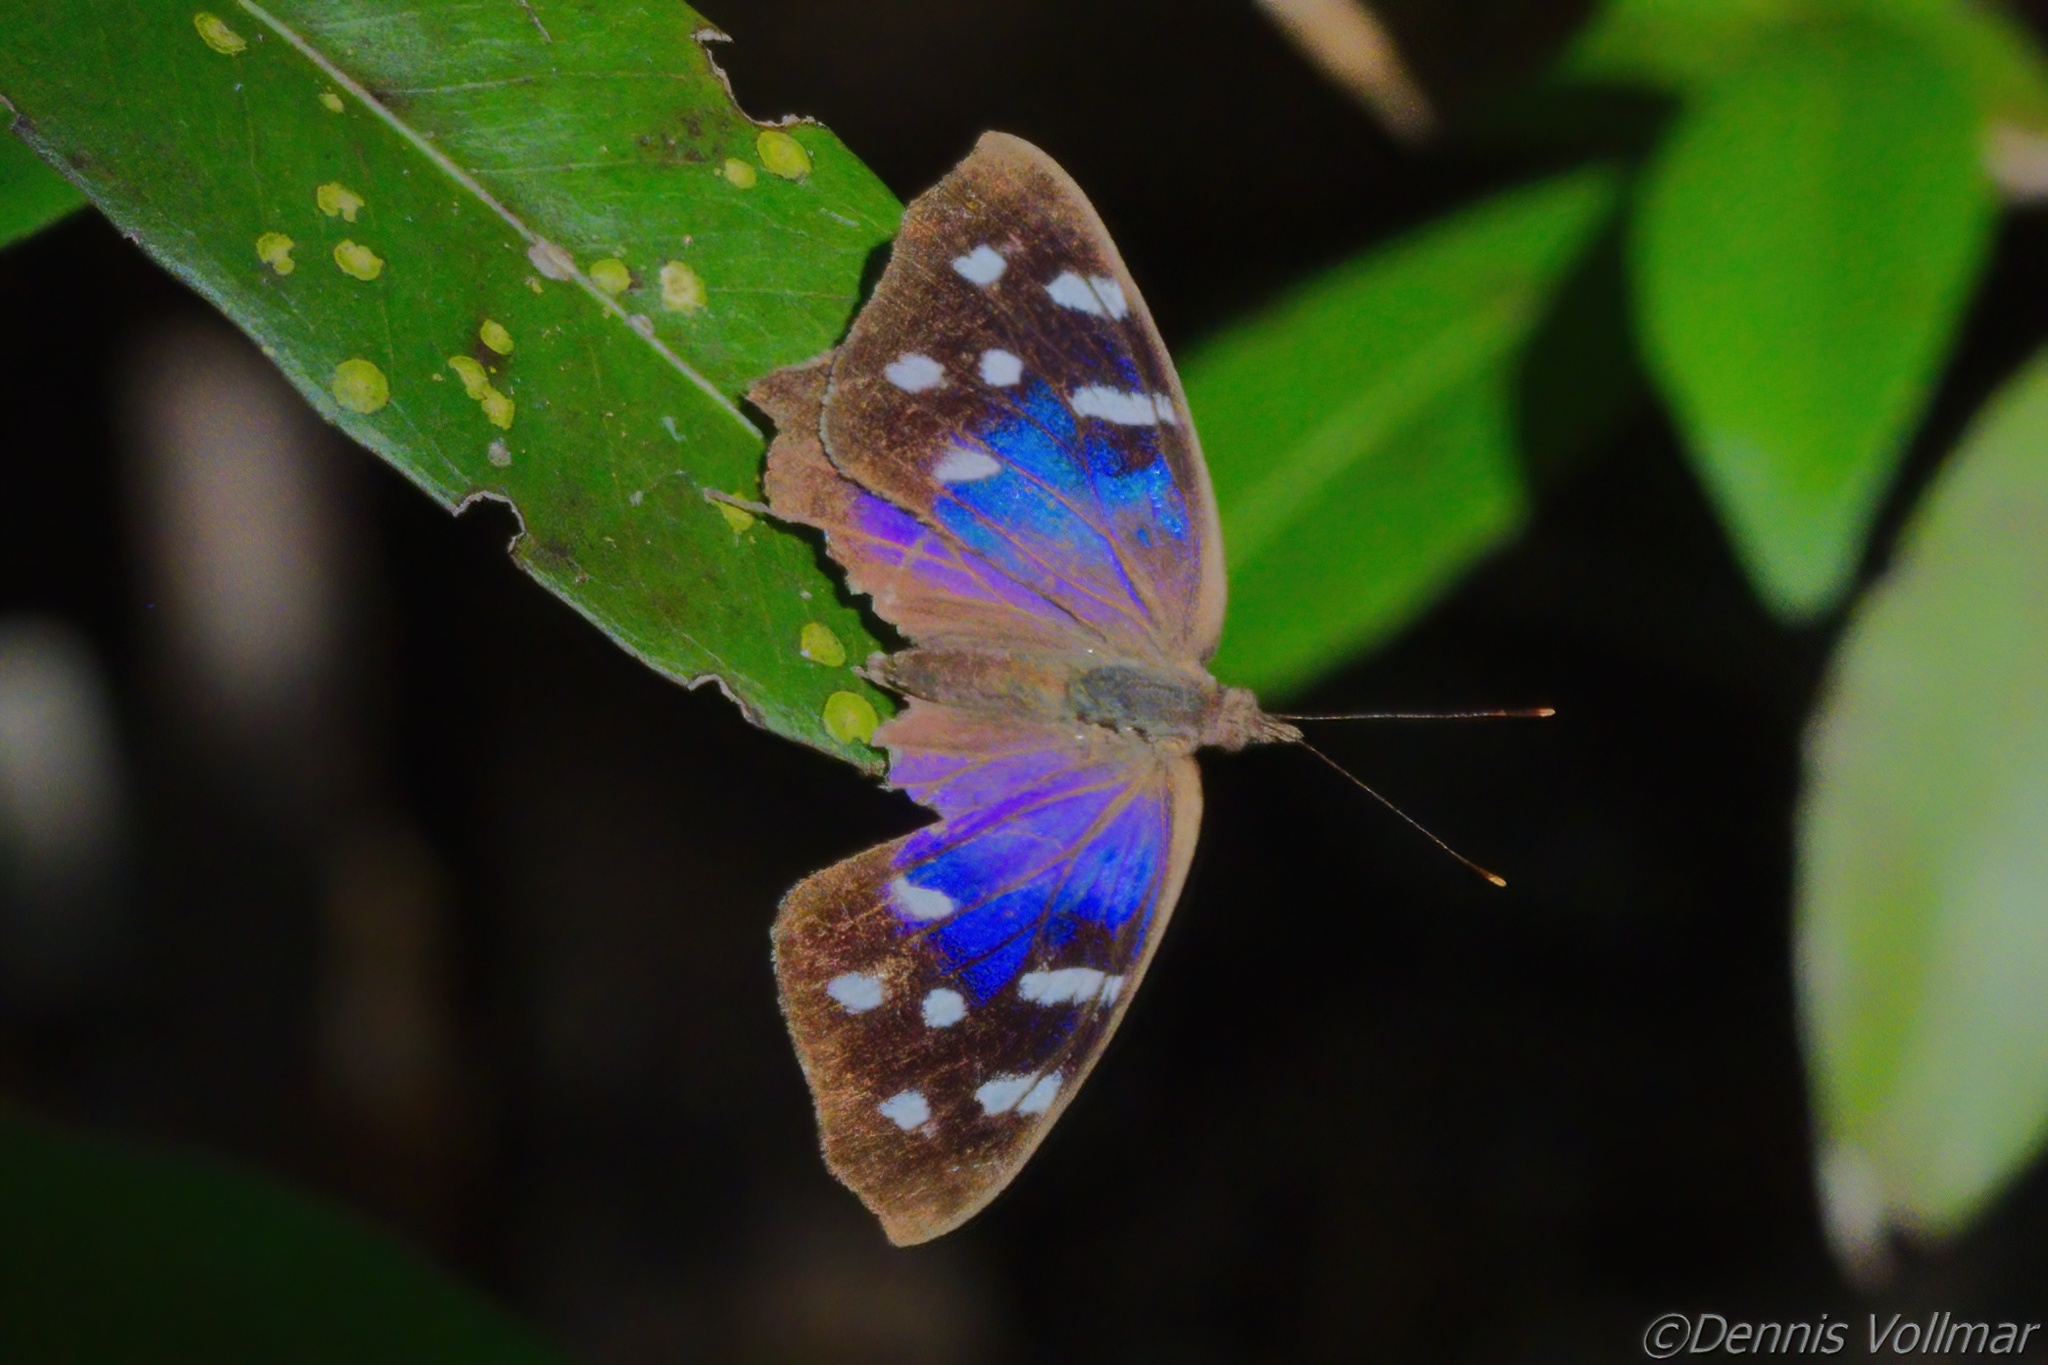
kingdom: Animalia
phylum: Arthropoda
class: Insecta
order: Lepidoptera
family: Nymphalidae
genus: Eunica
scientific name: Eunica tatila
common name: Florida purplewing
